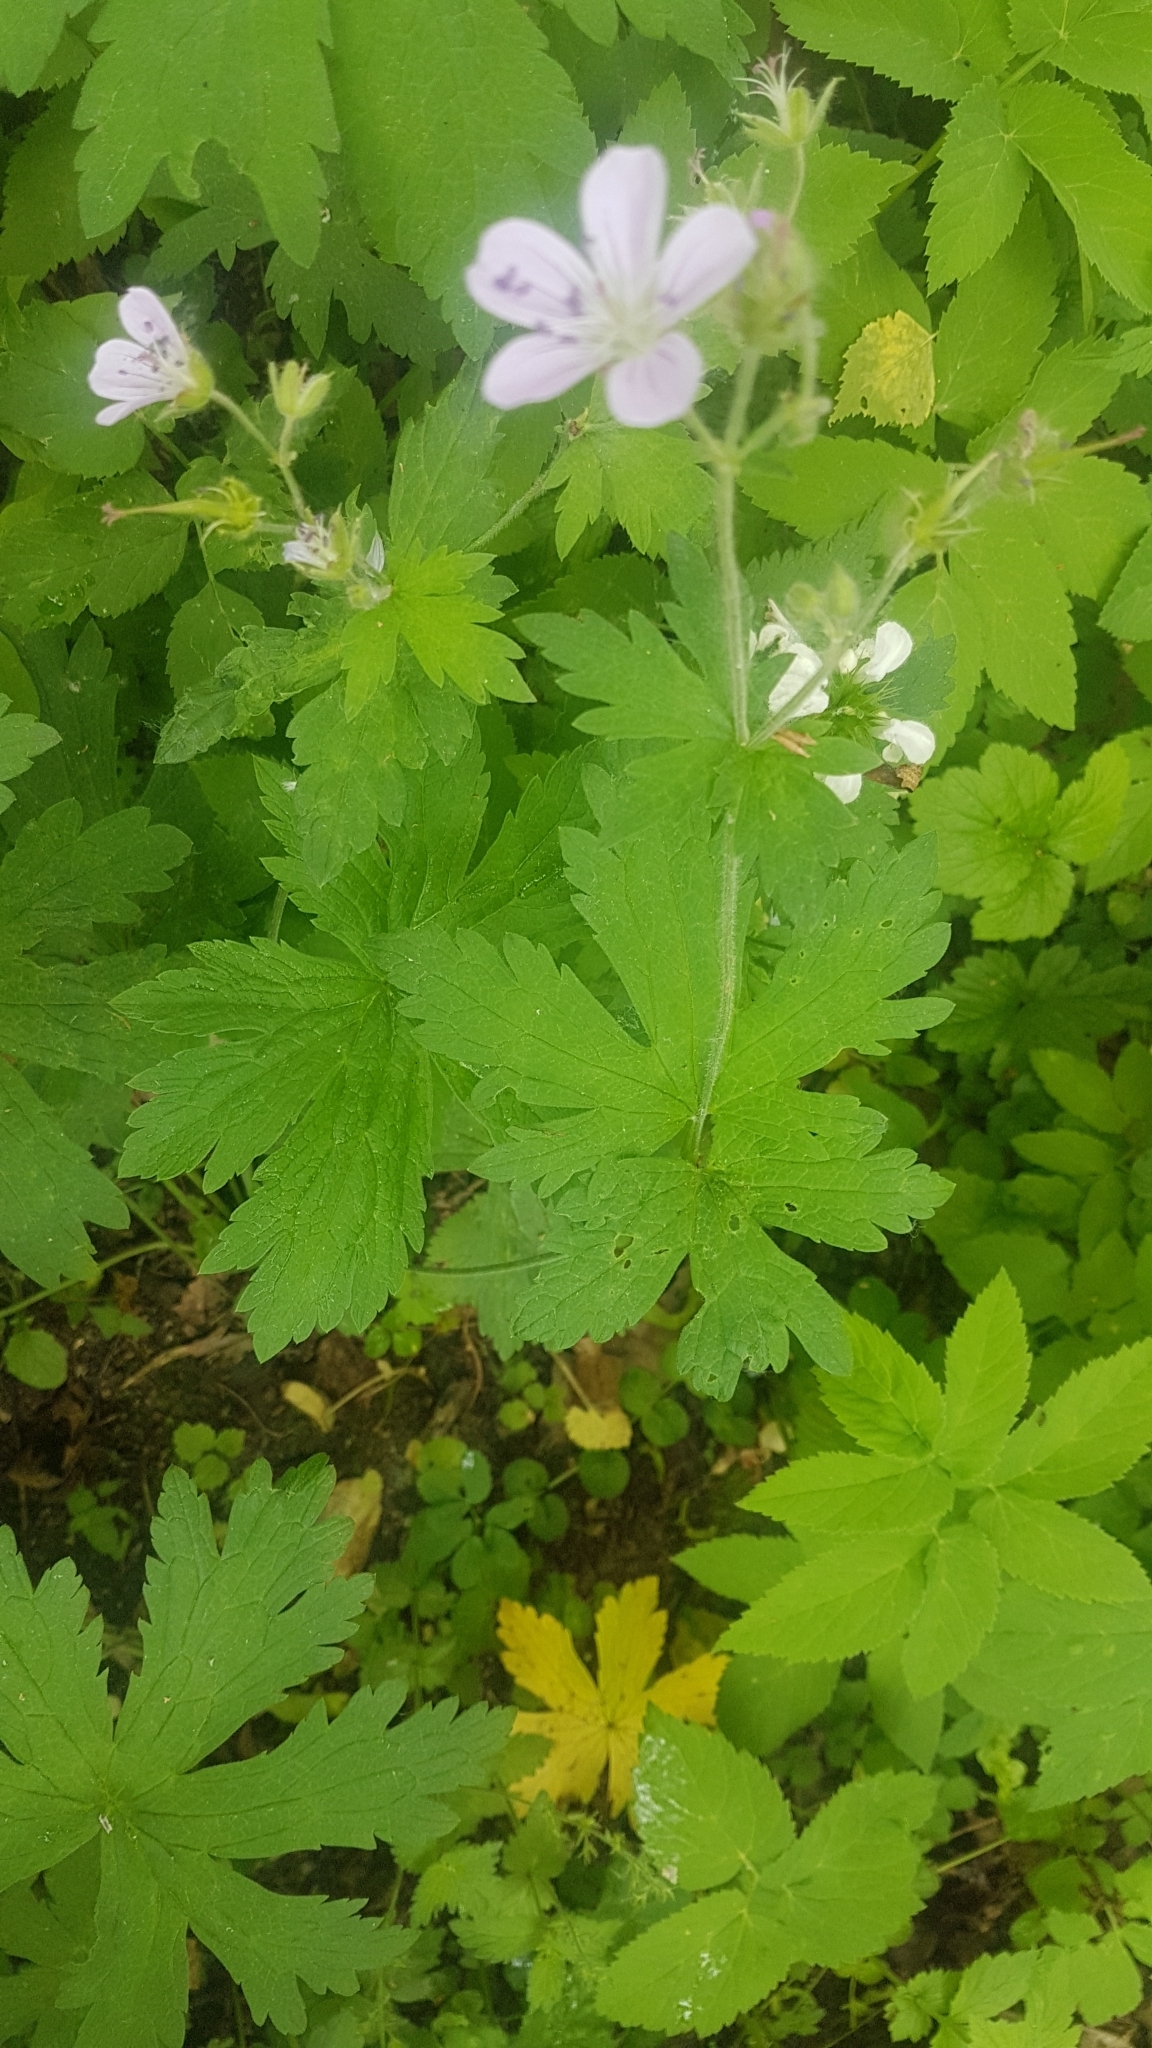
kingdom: Plantae
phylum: Tracheophyta
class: Magnoliopsida
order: Geraniales
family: Geraniaceae
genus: Geranium
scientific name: Geranium sylvaticum
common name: Wood crane's-bill
